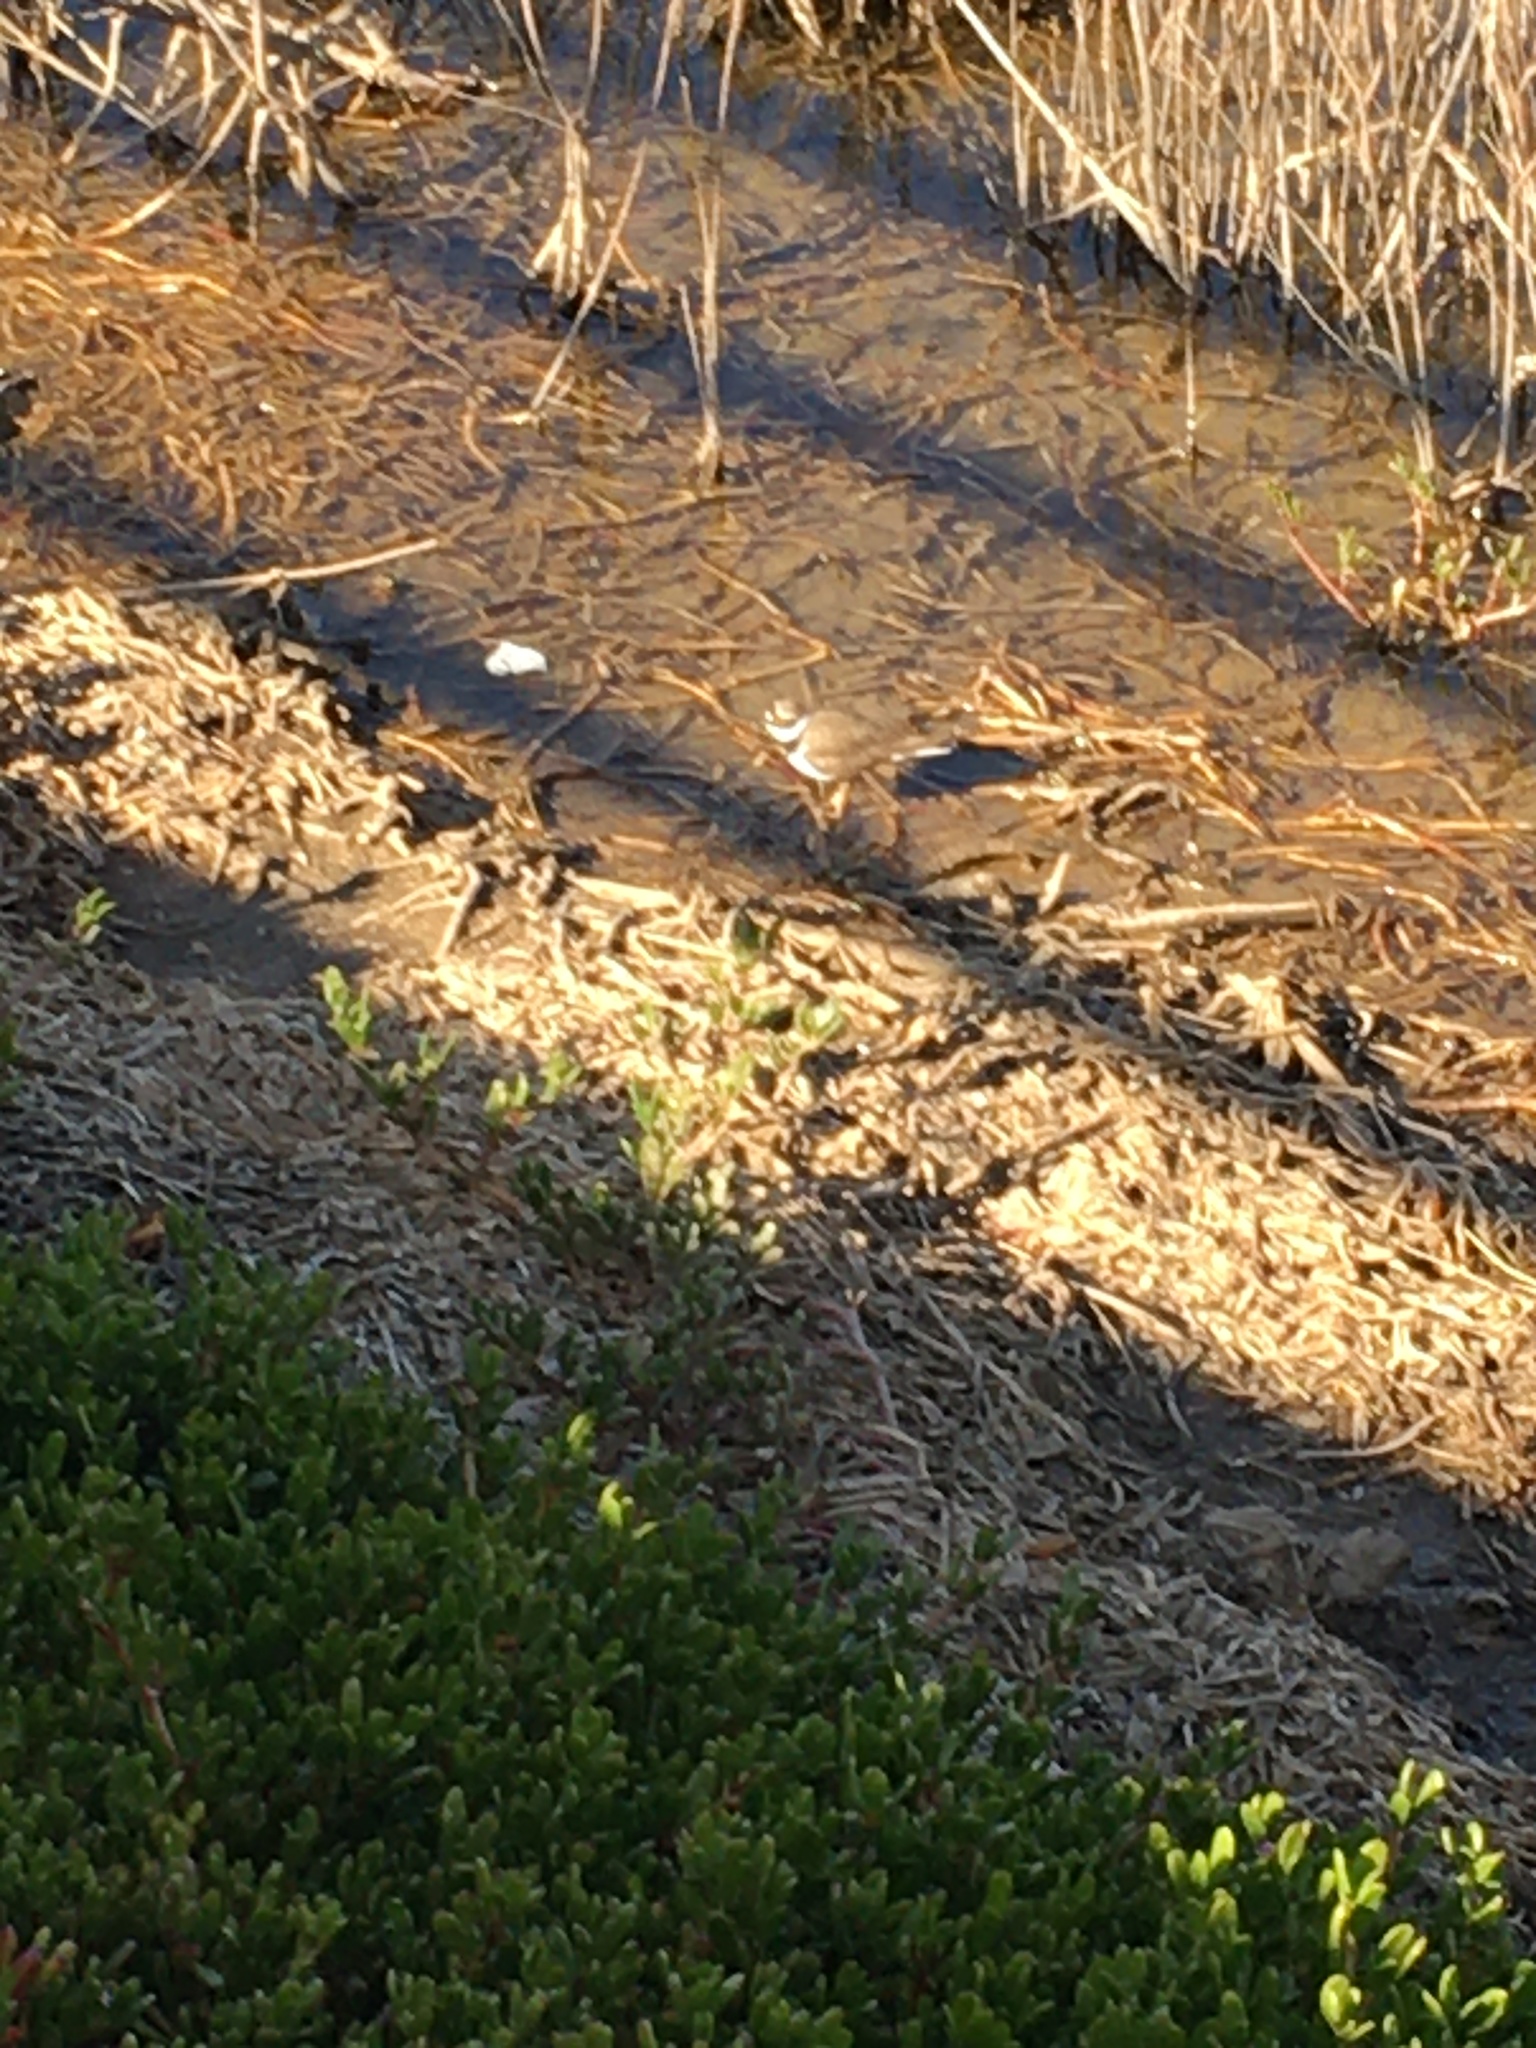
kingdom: Animalia
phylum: Chordata
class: Aves
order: Charadriiformes
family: Charadriidae
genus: Charadrius
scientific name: Charadrius dubius
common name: Little ringed plover
